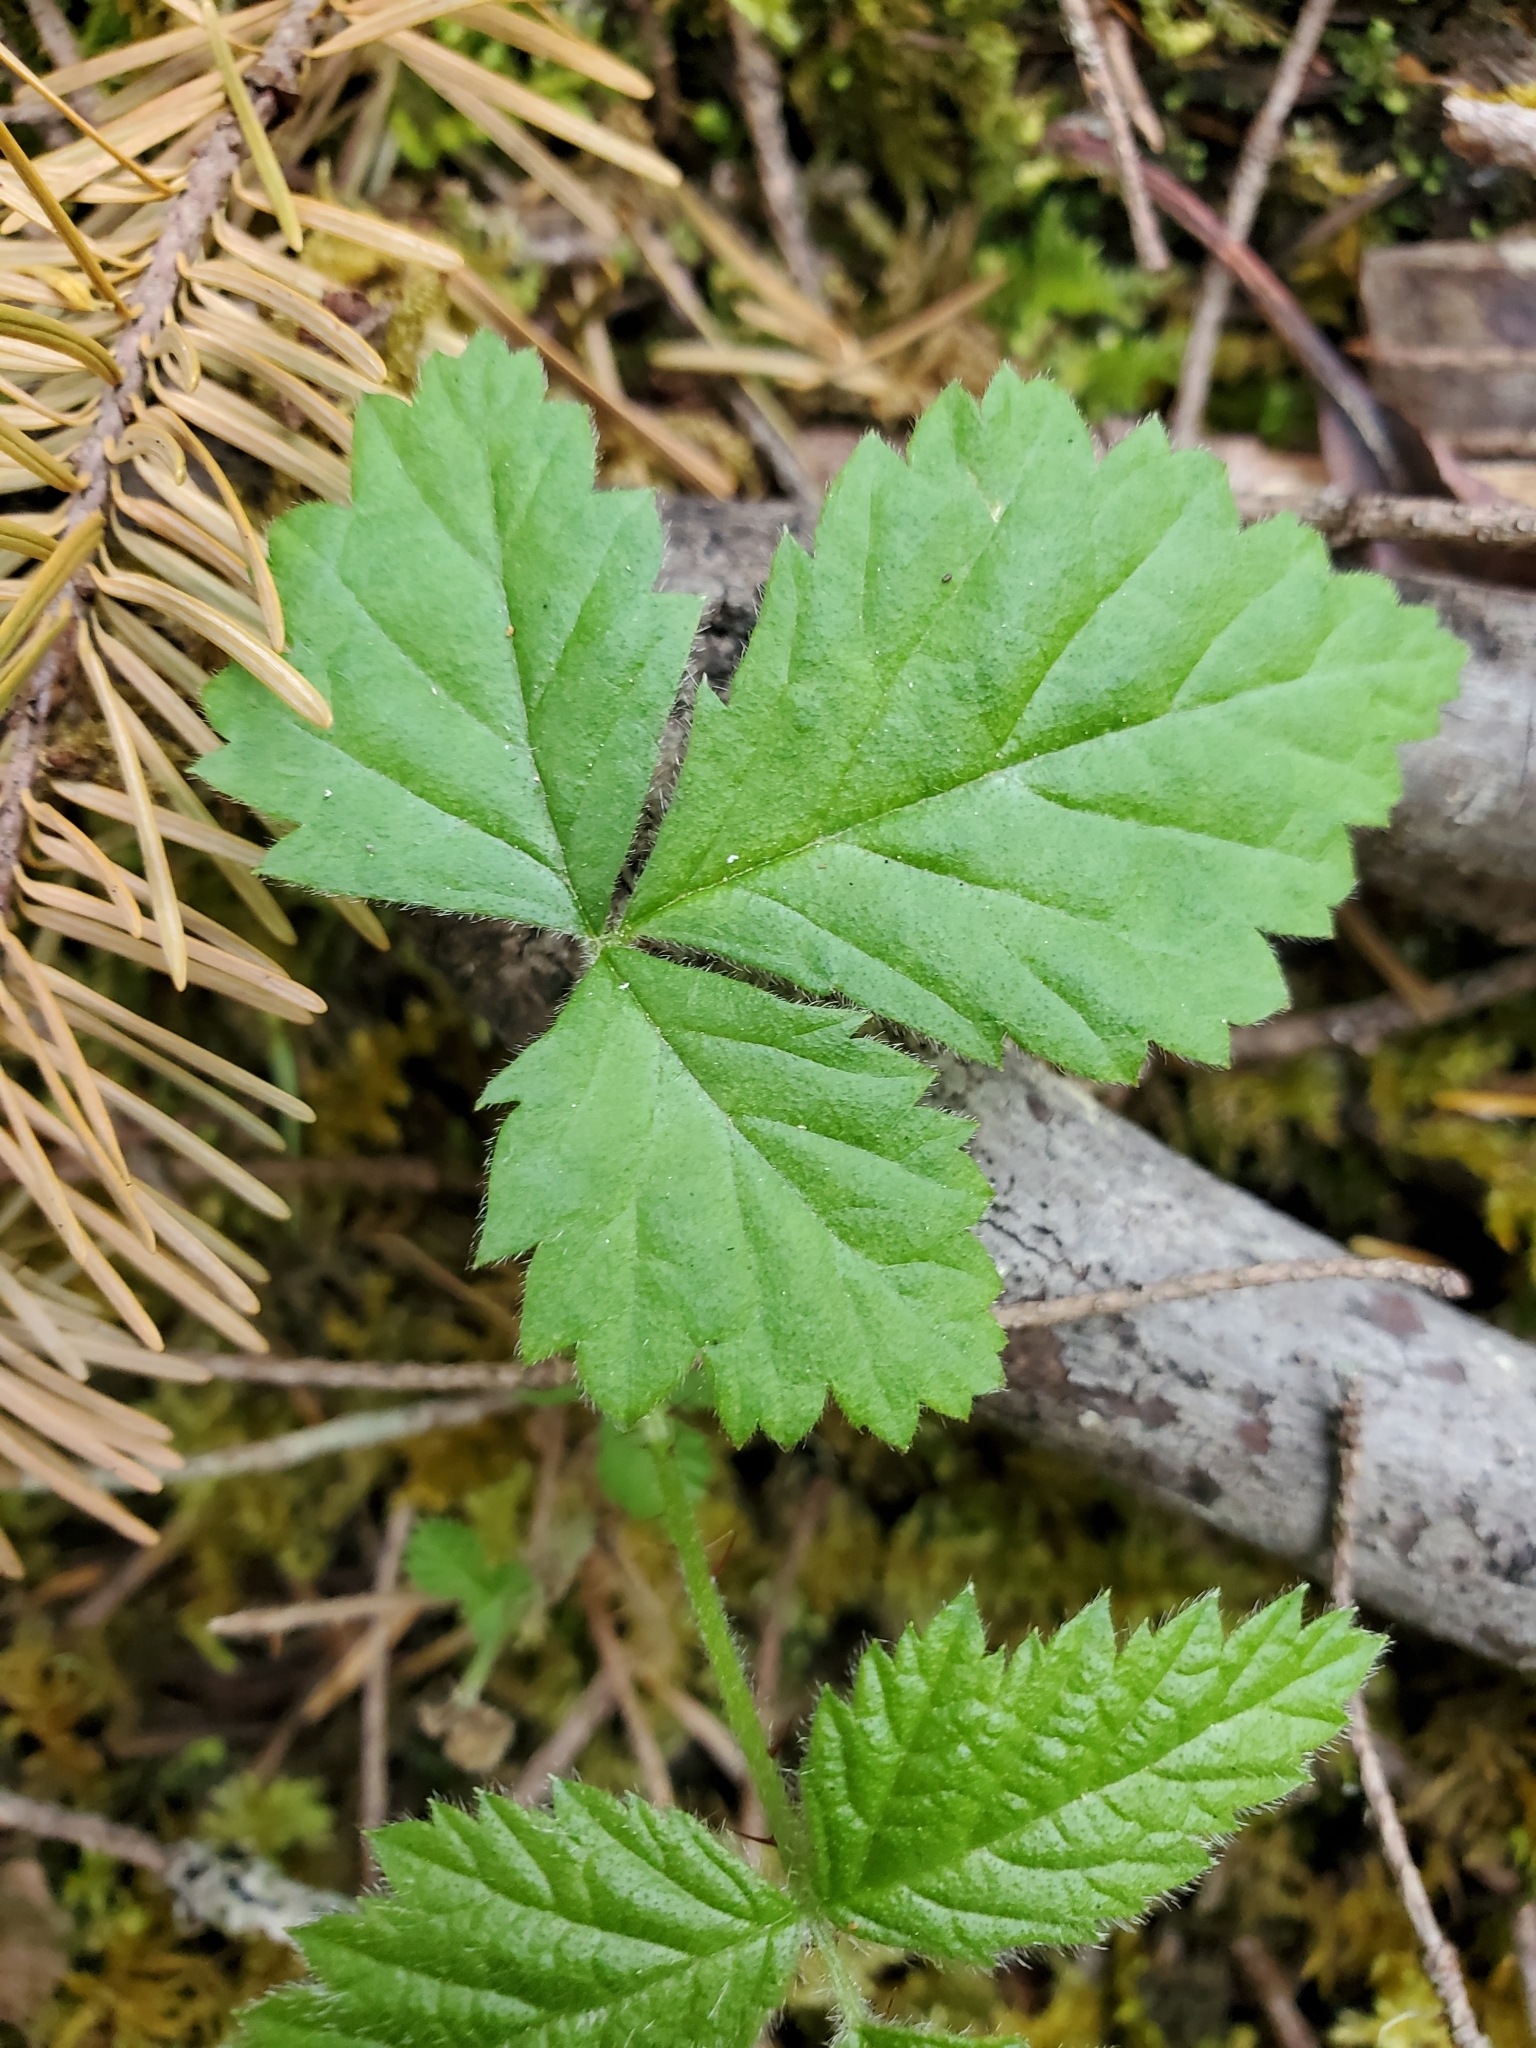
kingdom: Plantae
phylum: Tracheophyta
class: Magnoliopsida
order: Rosales
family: Rosaceae
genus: Rubus
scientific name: Rubus ursinus
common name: Pacific blackberry
